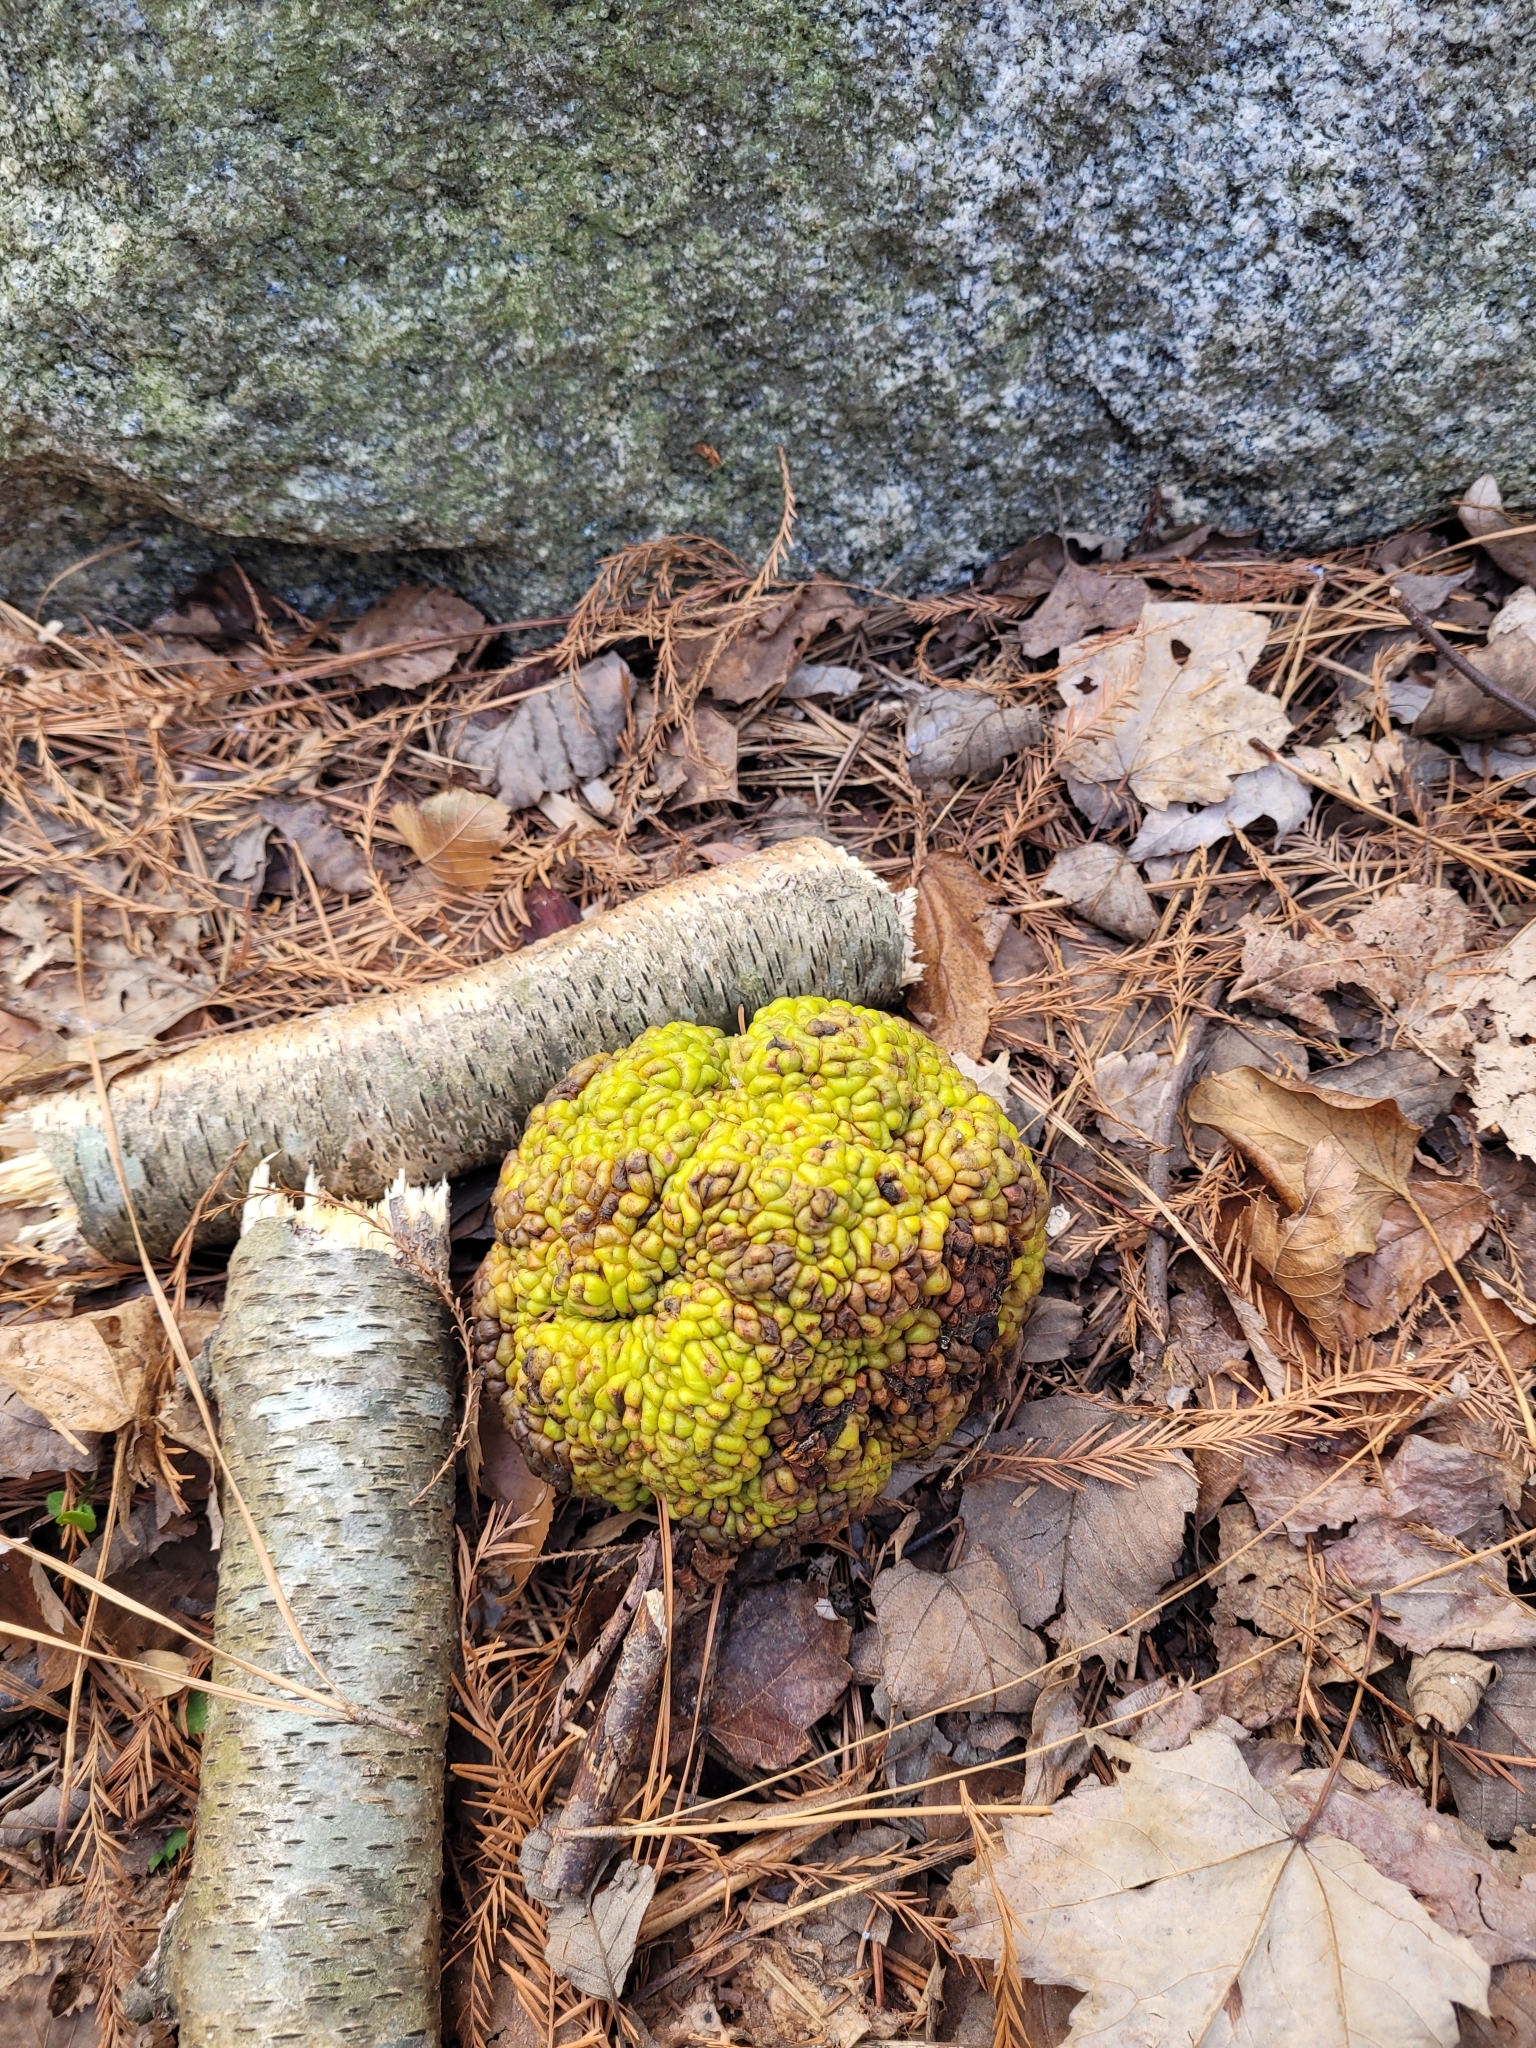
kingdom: Plantae
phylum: Tracheophyta
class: Magnoliopsida
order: Rosales
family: Moraceae
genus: Maclura
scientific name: Maclura pomifera
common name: Osage-orange
